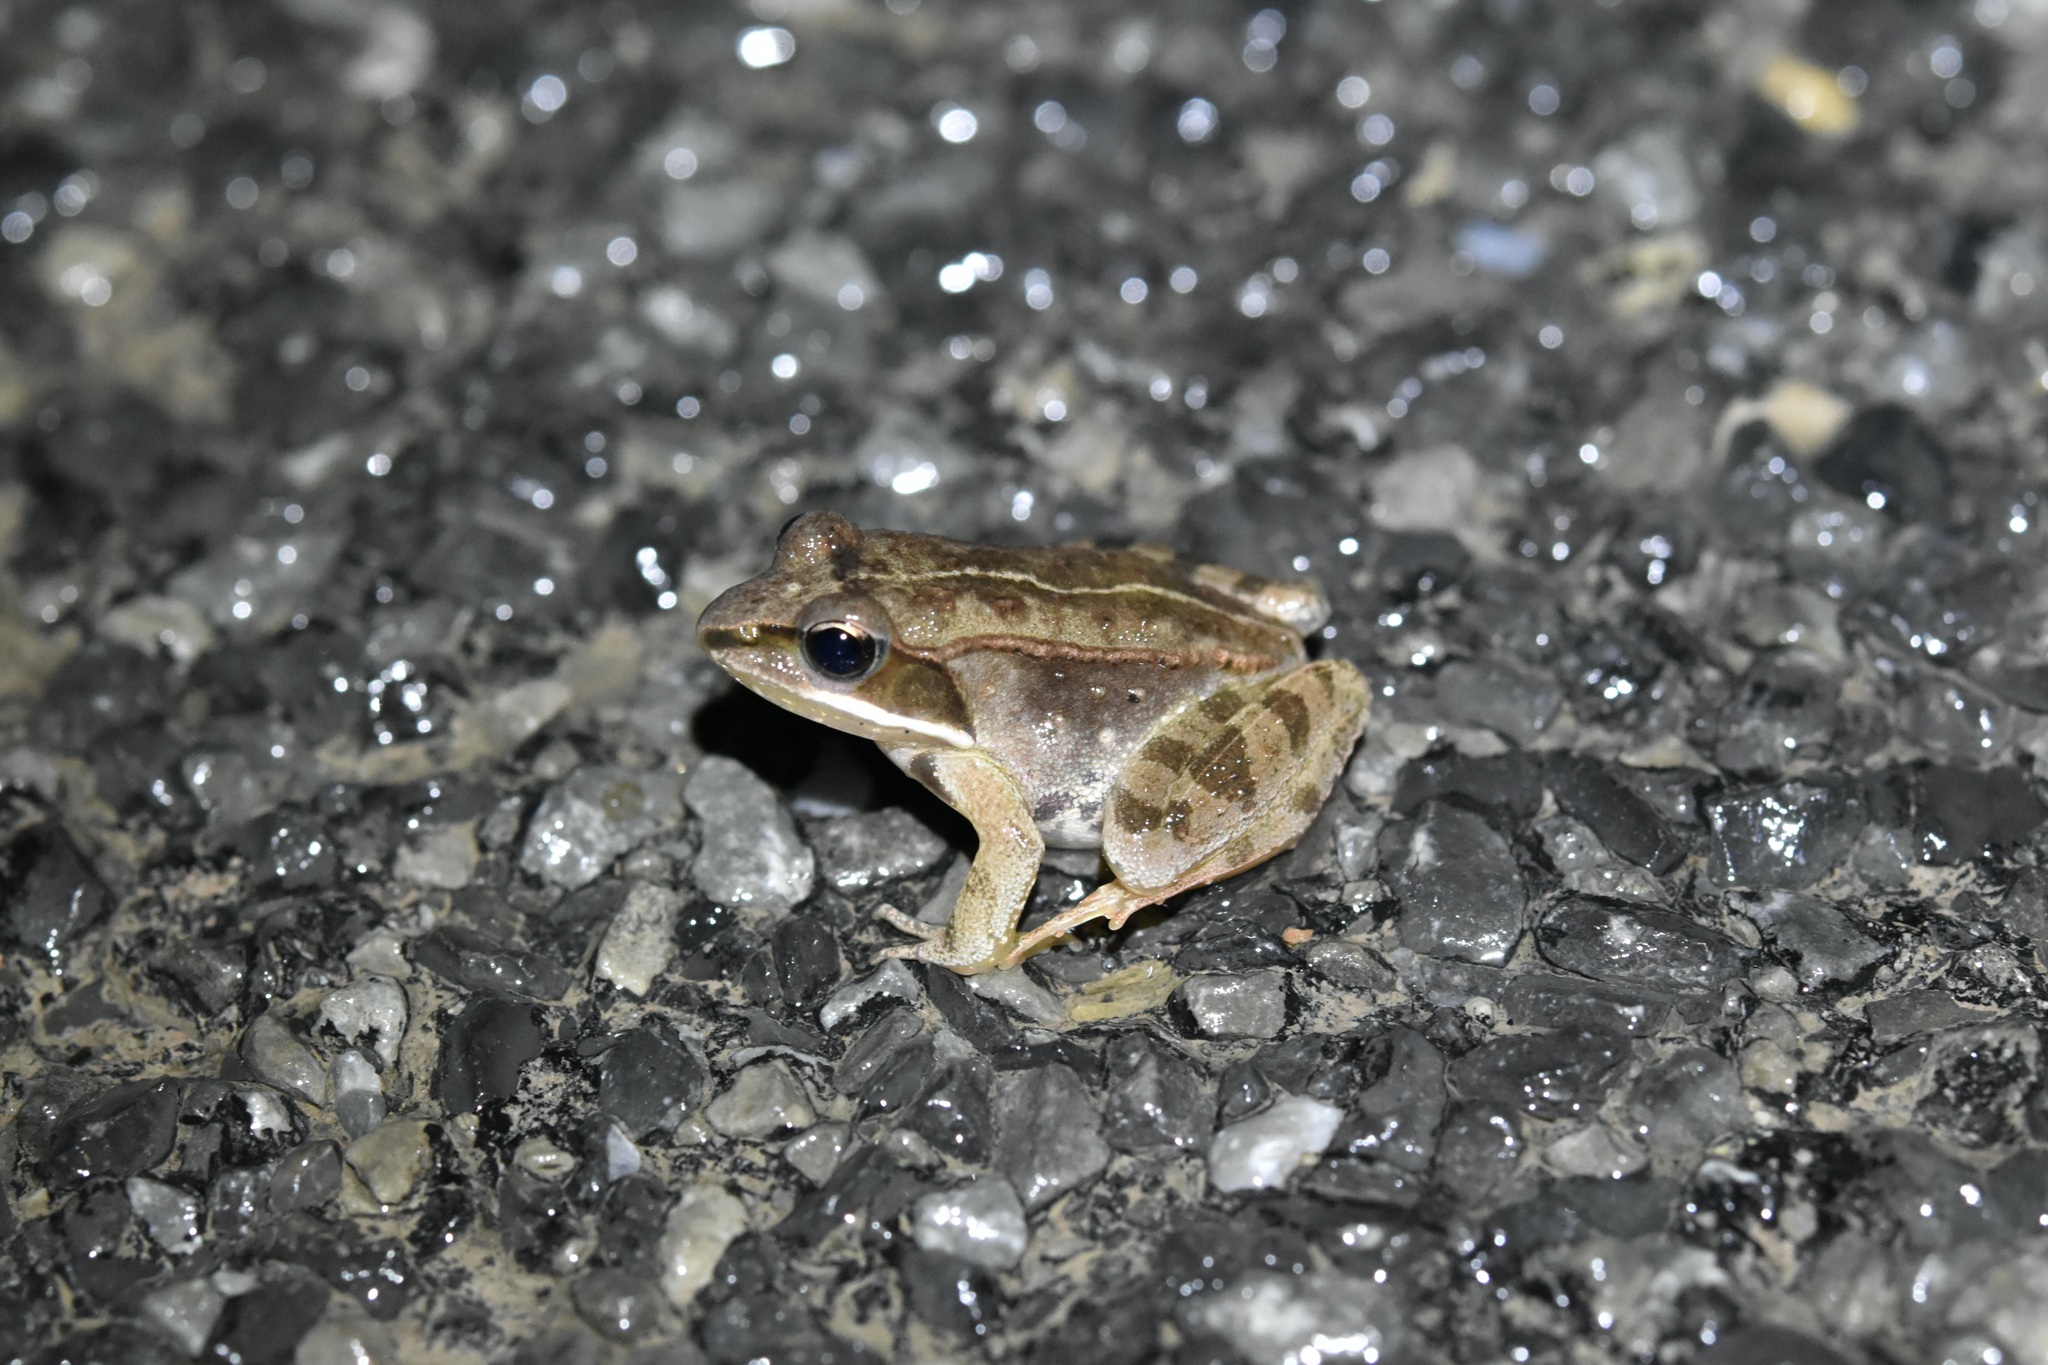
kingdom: Animalia
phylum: Chordata
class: Amphibia
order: Anura
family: Ranidae
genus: Lithobates
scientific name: Lithobates sylvaticus
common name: Wood frog
